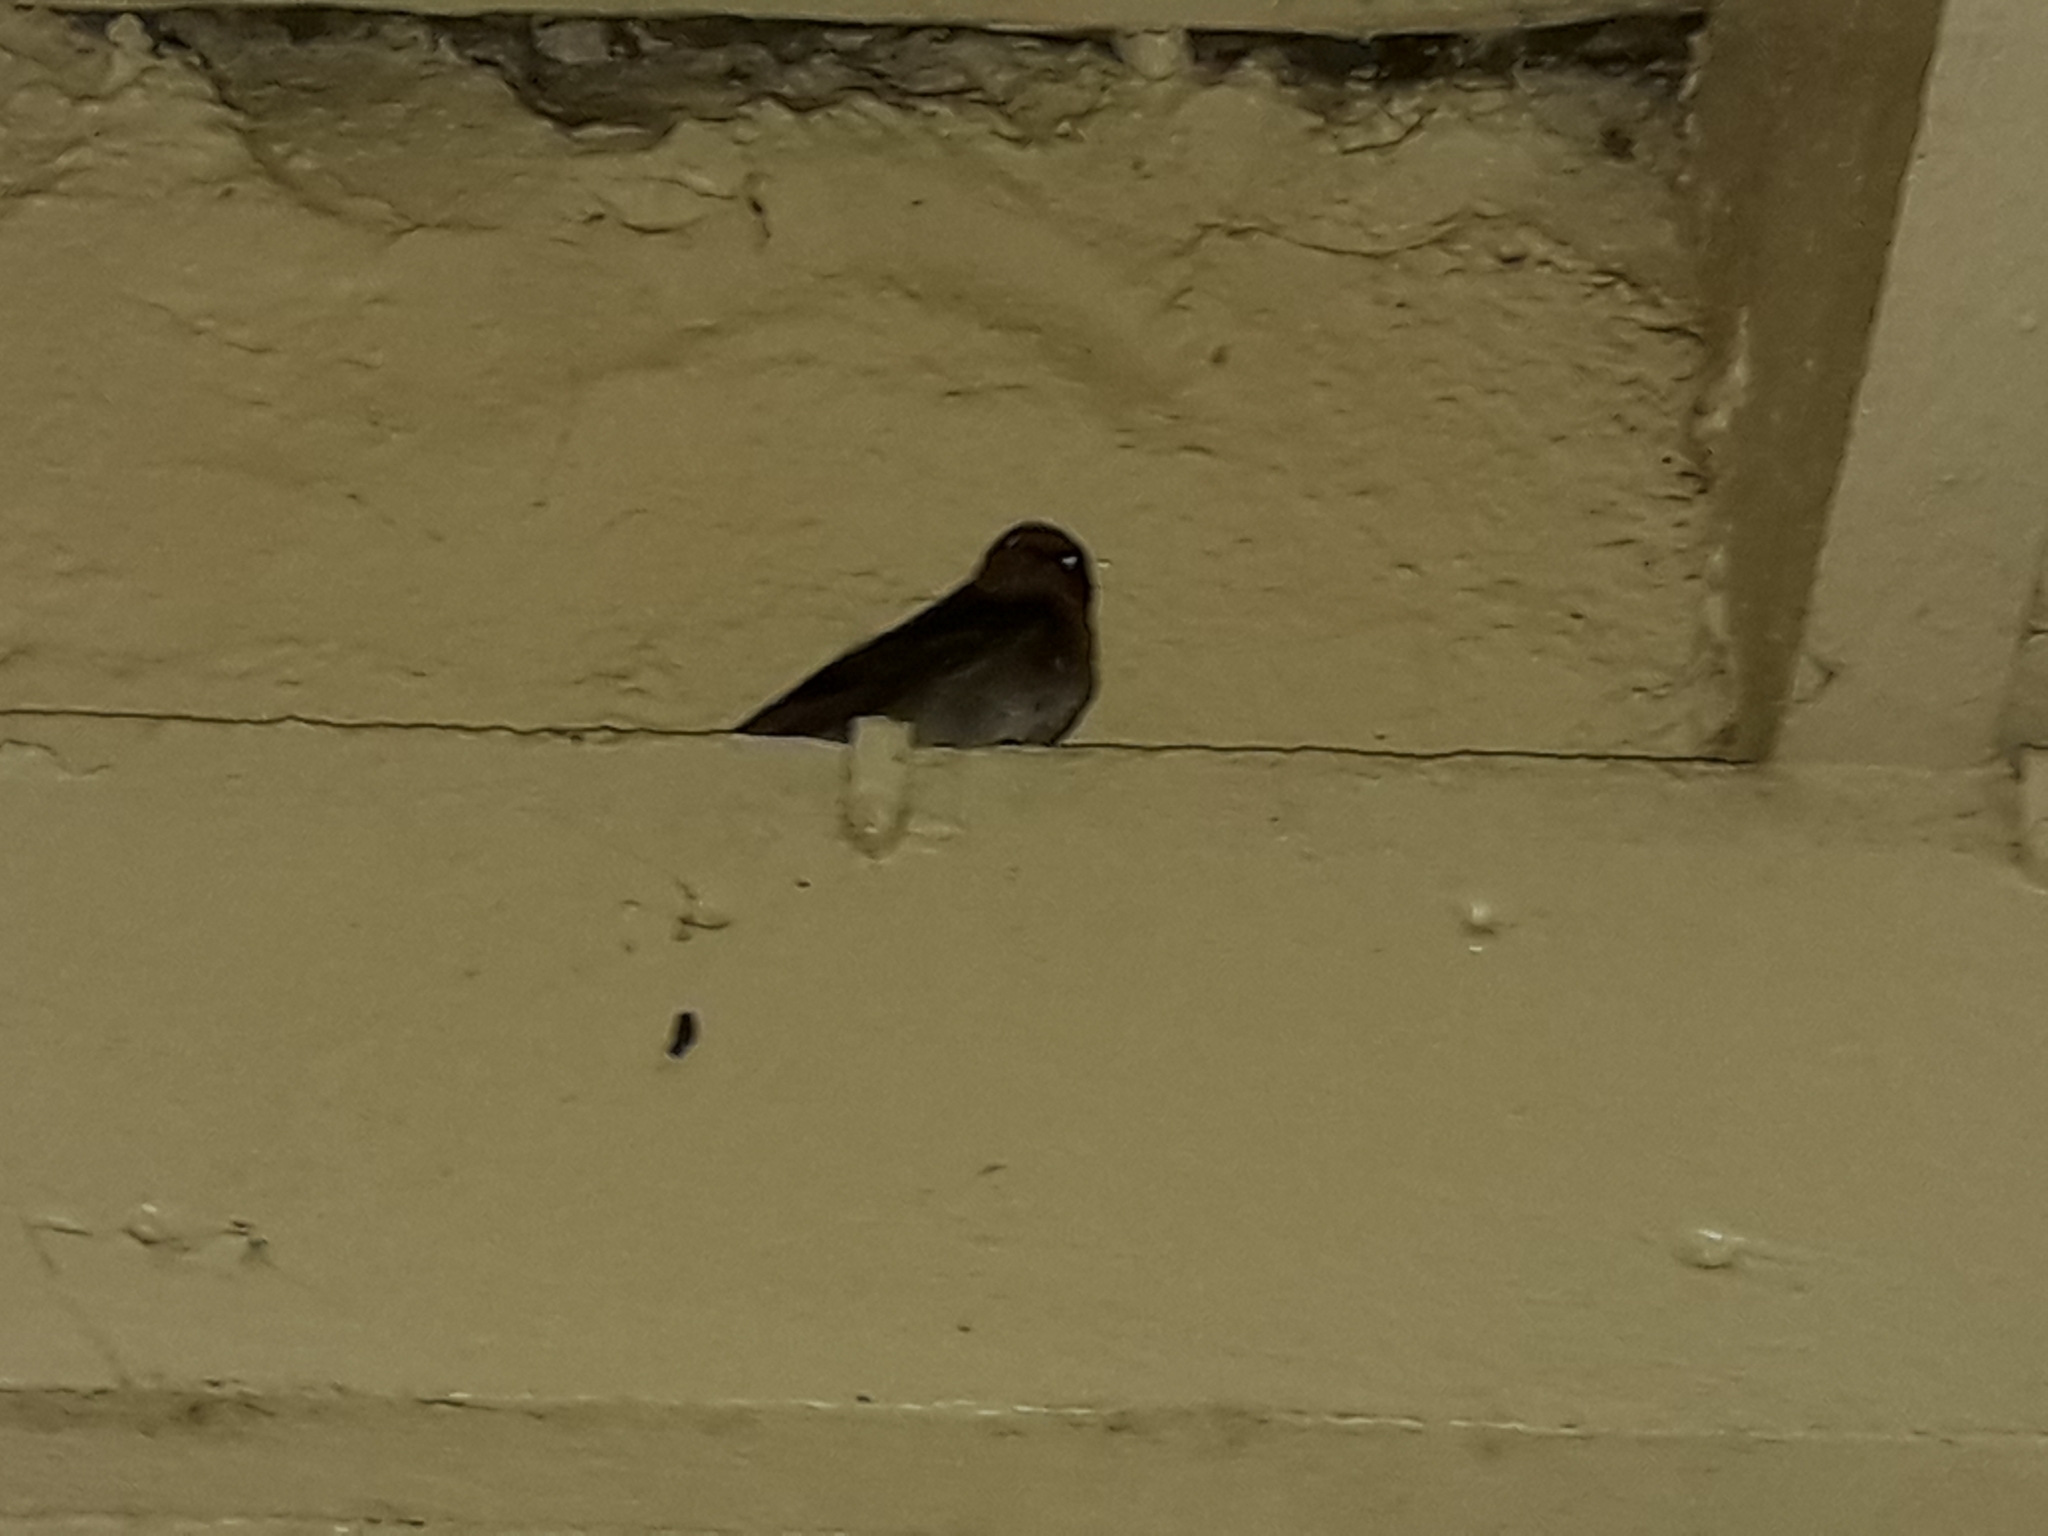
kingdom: Animalia
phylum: Chordata
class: Aves
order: Passeriformes
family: Hirundinidae
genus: Hirundo
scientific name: Hirundo neoxena
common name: Welcome swallow
